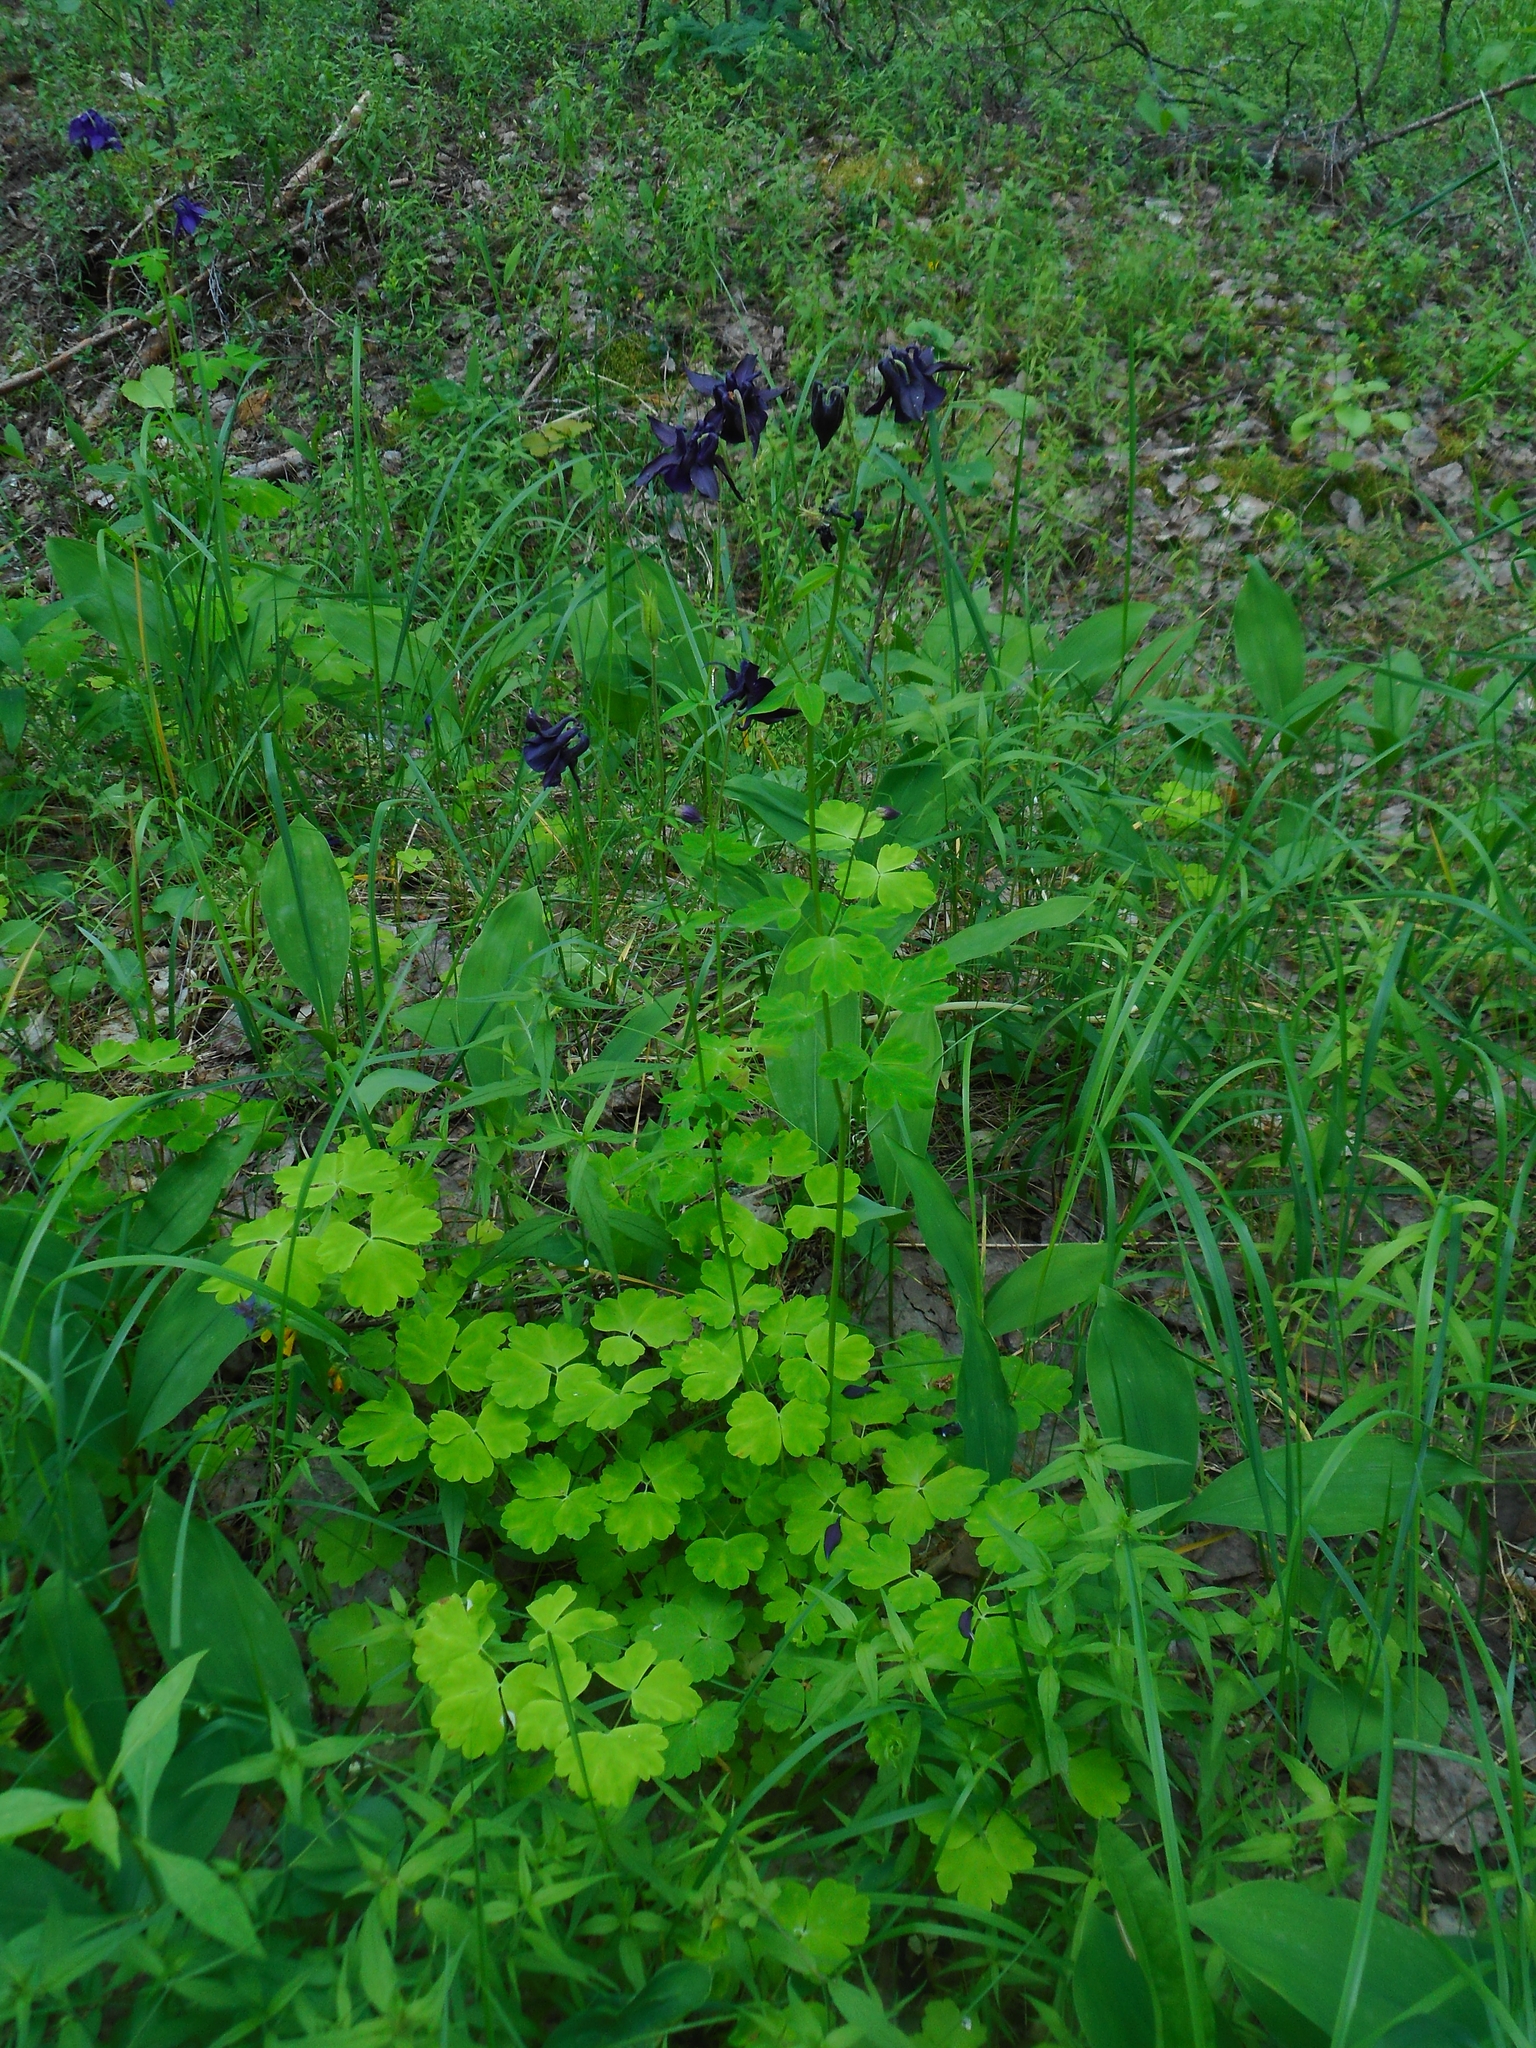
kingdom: Plantae
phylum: Tracheophyta
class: Magnoliopsida
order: Ranunculales
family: Ranunculaceae
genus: Aquilegia
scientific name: Aquilegia vulgaris
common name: Columbine
